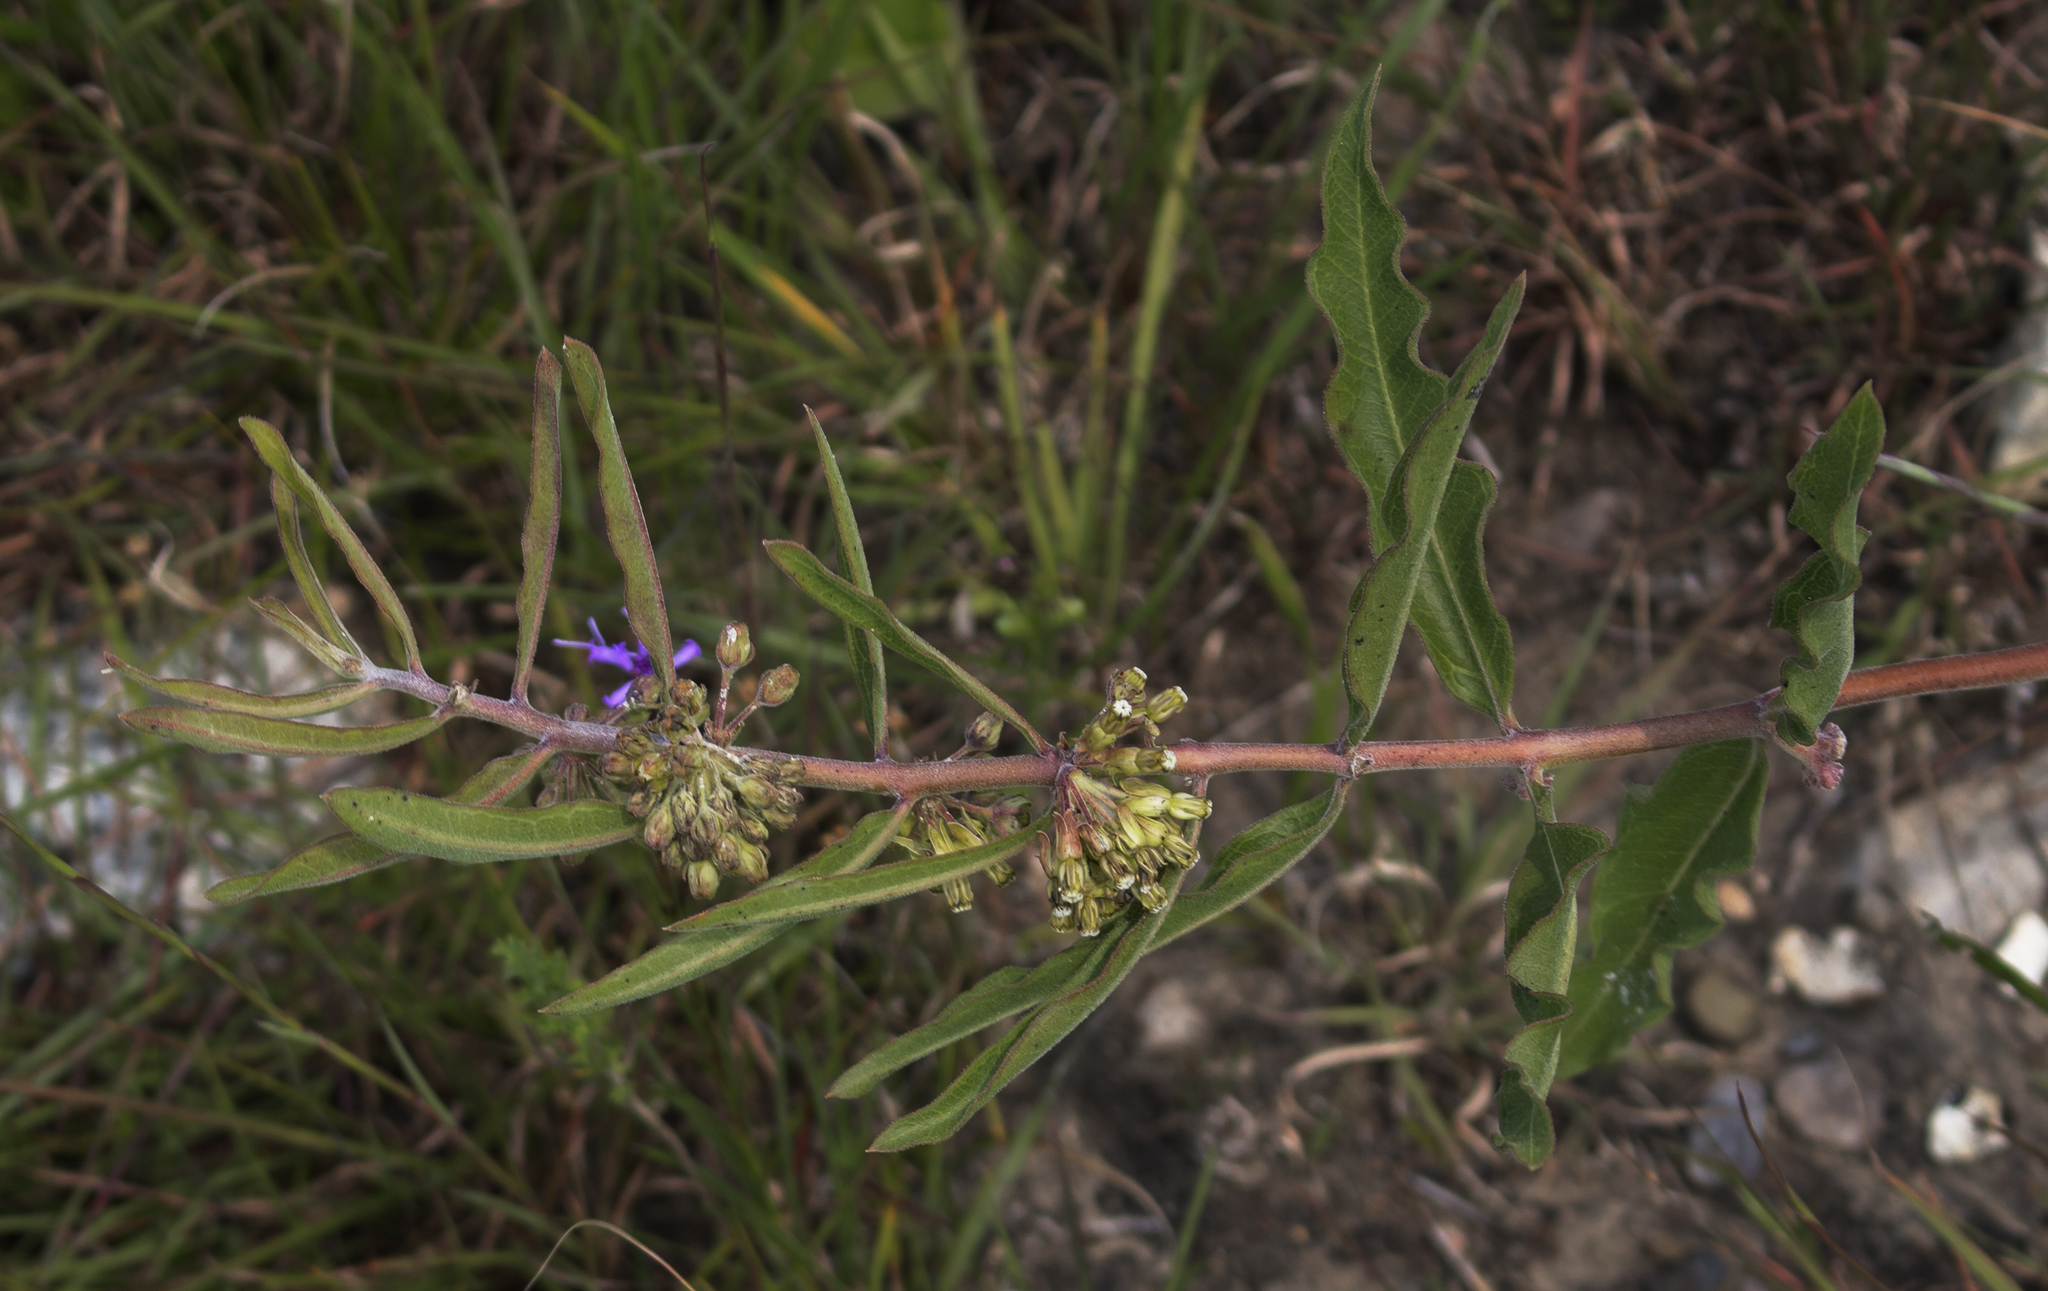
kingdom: Plantae
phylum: Tracheophyta
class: Magnoliopsida
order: Gentianales
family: Apocynaceae
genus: Asclepias
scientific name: Asclepias viridiflora
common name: Green comet milkweed
